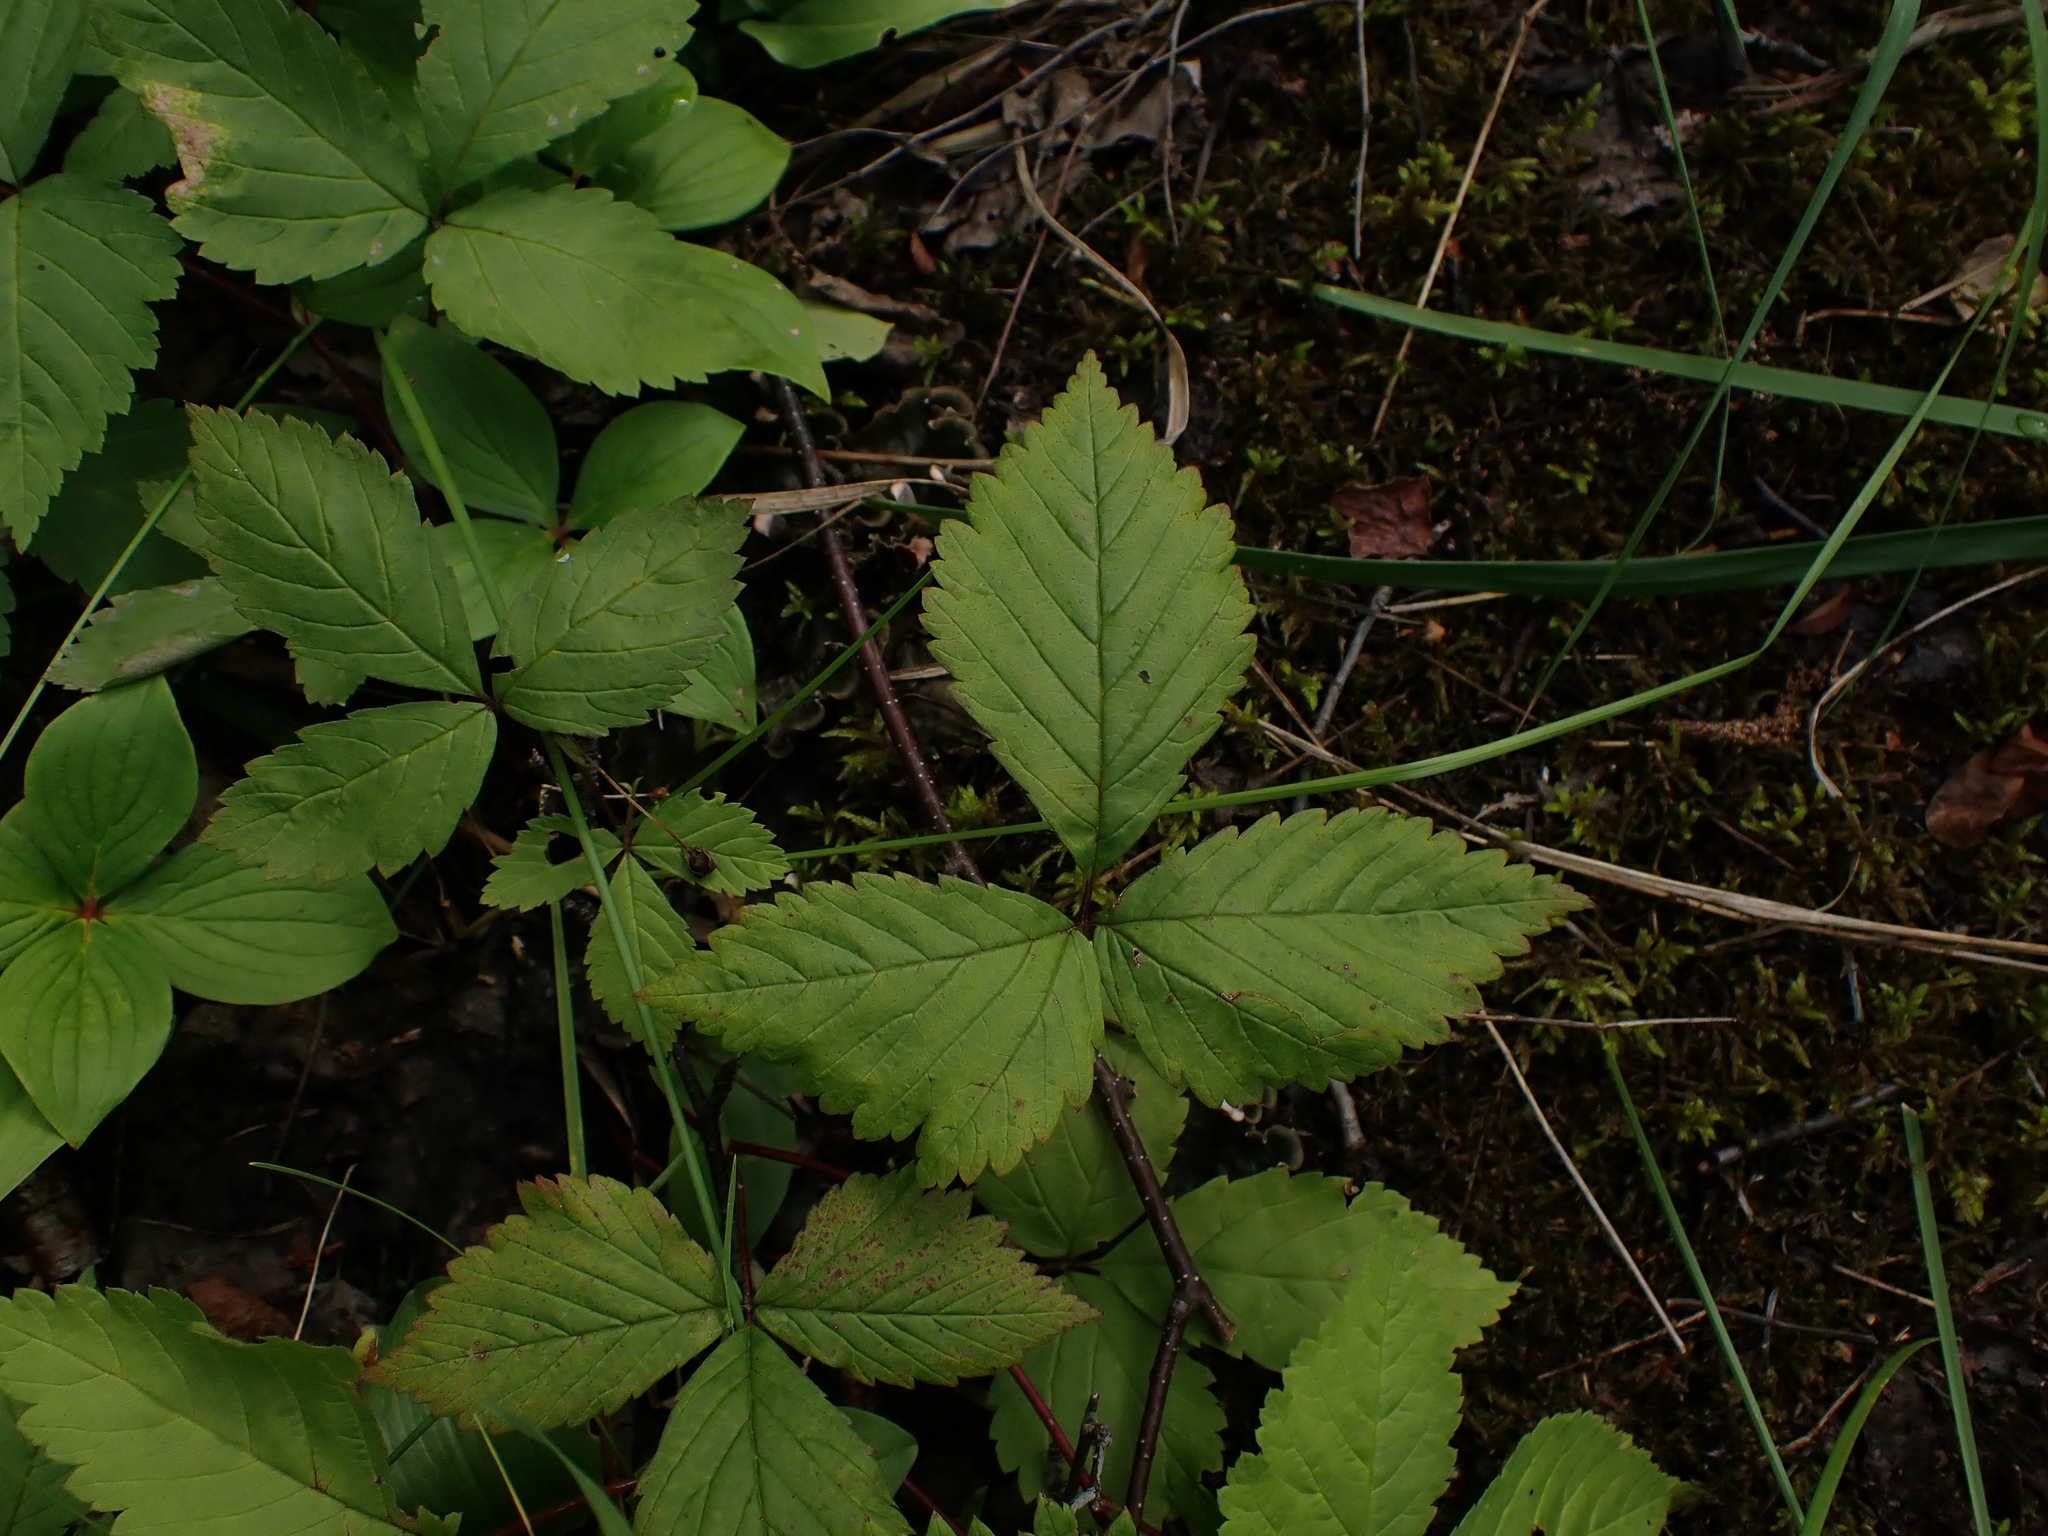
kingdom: Plantae
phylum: Tracheophyta
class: Magnoliopsida
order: Rosales
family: Rosaceae
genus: Rubus
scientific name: Rubus pubescens
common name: Dwarf raspberry
